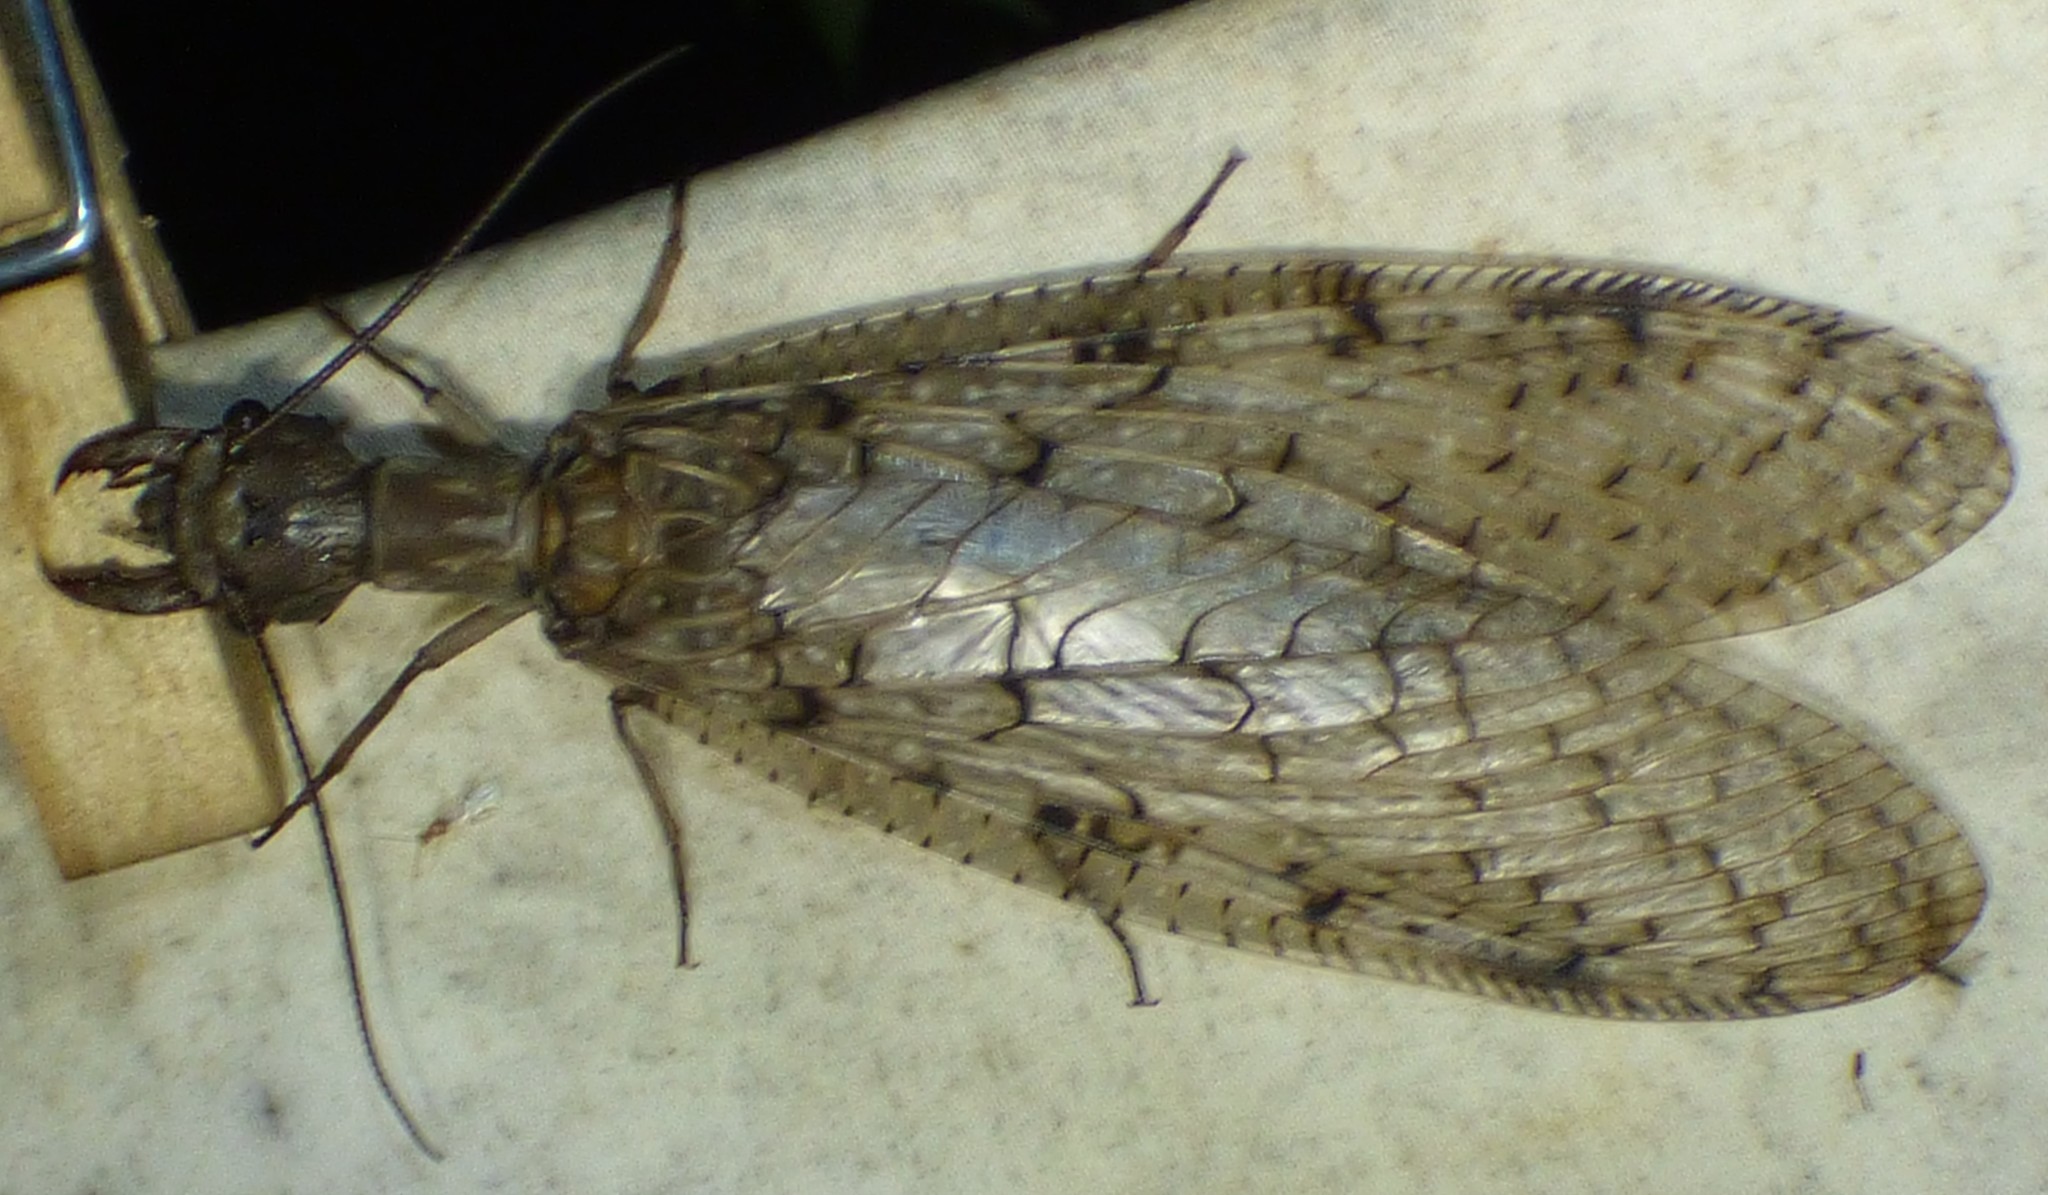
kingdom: Animalia
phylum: Arthropoda
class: Insecta
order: Megaloptera
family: Corydalidae
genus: Corydalus
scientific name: Corydalus cornutus
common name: Dobsonfly
